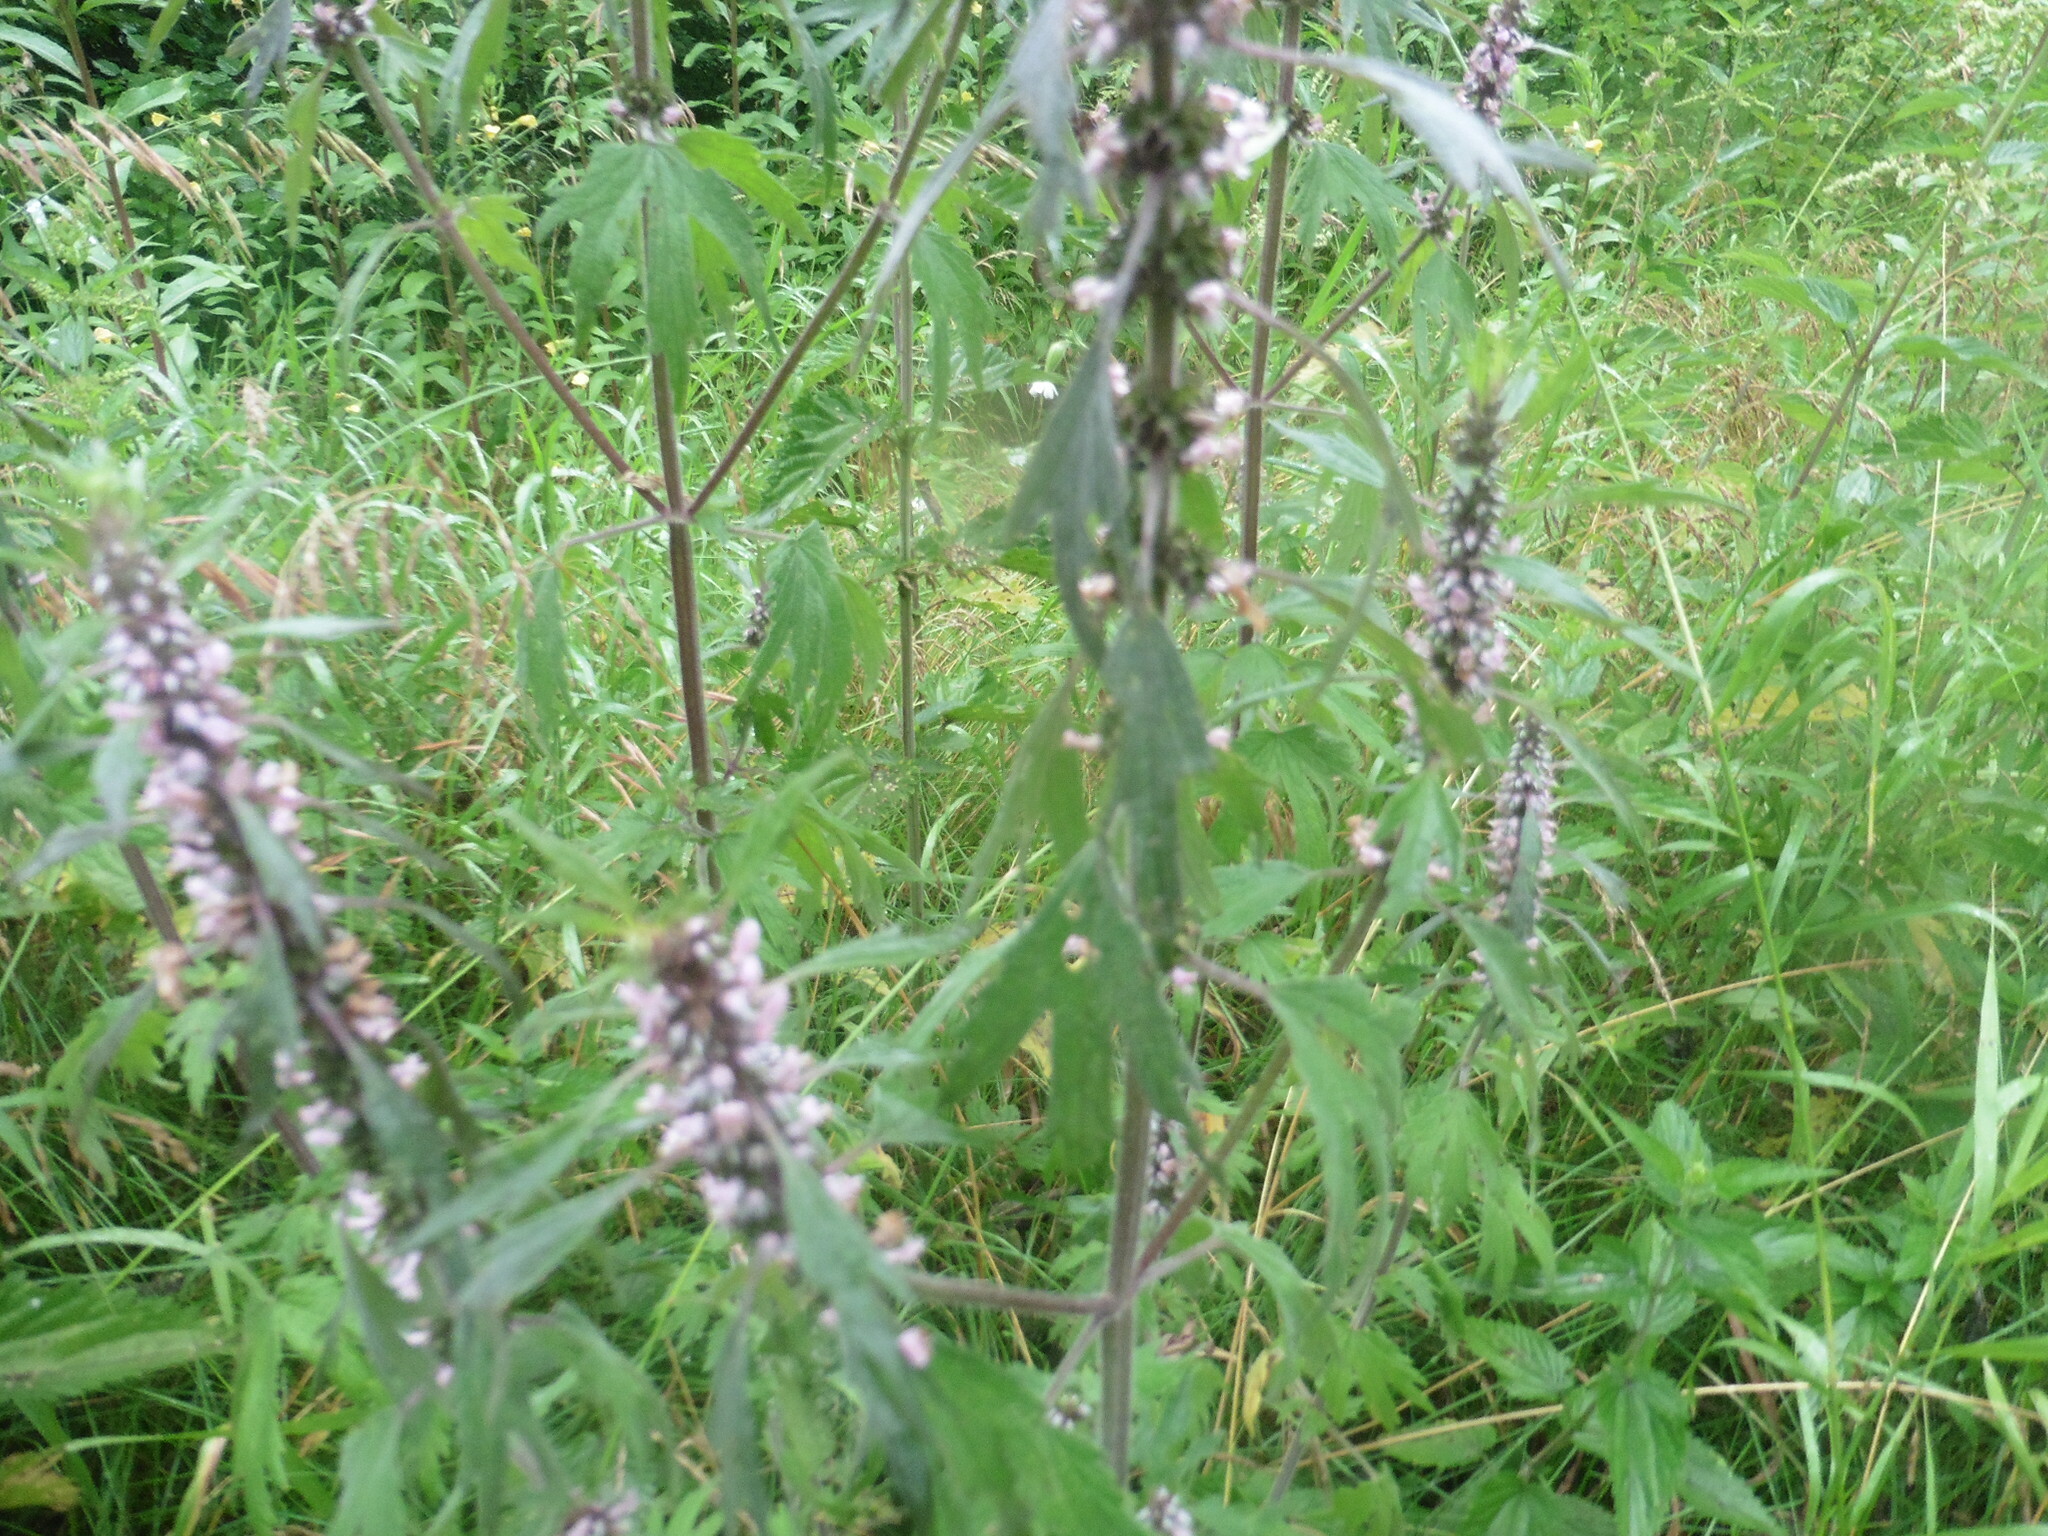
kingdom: Plantae
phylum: Tracheophyta
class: Magnoliopsida
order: Lamiales
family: Lamiaceae
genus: Leonurus
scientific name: Leonurus quinquelobatus
